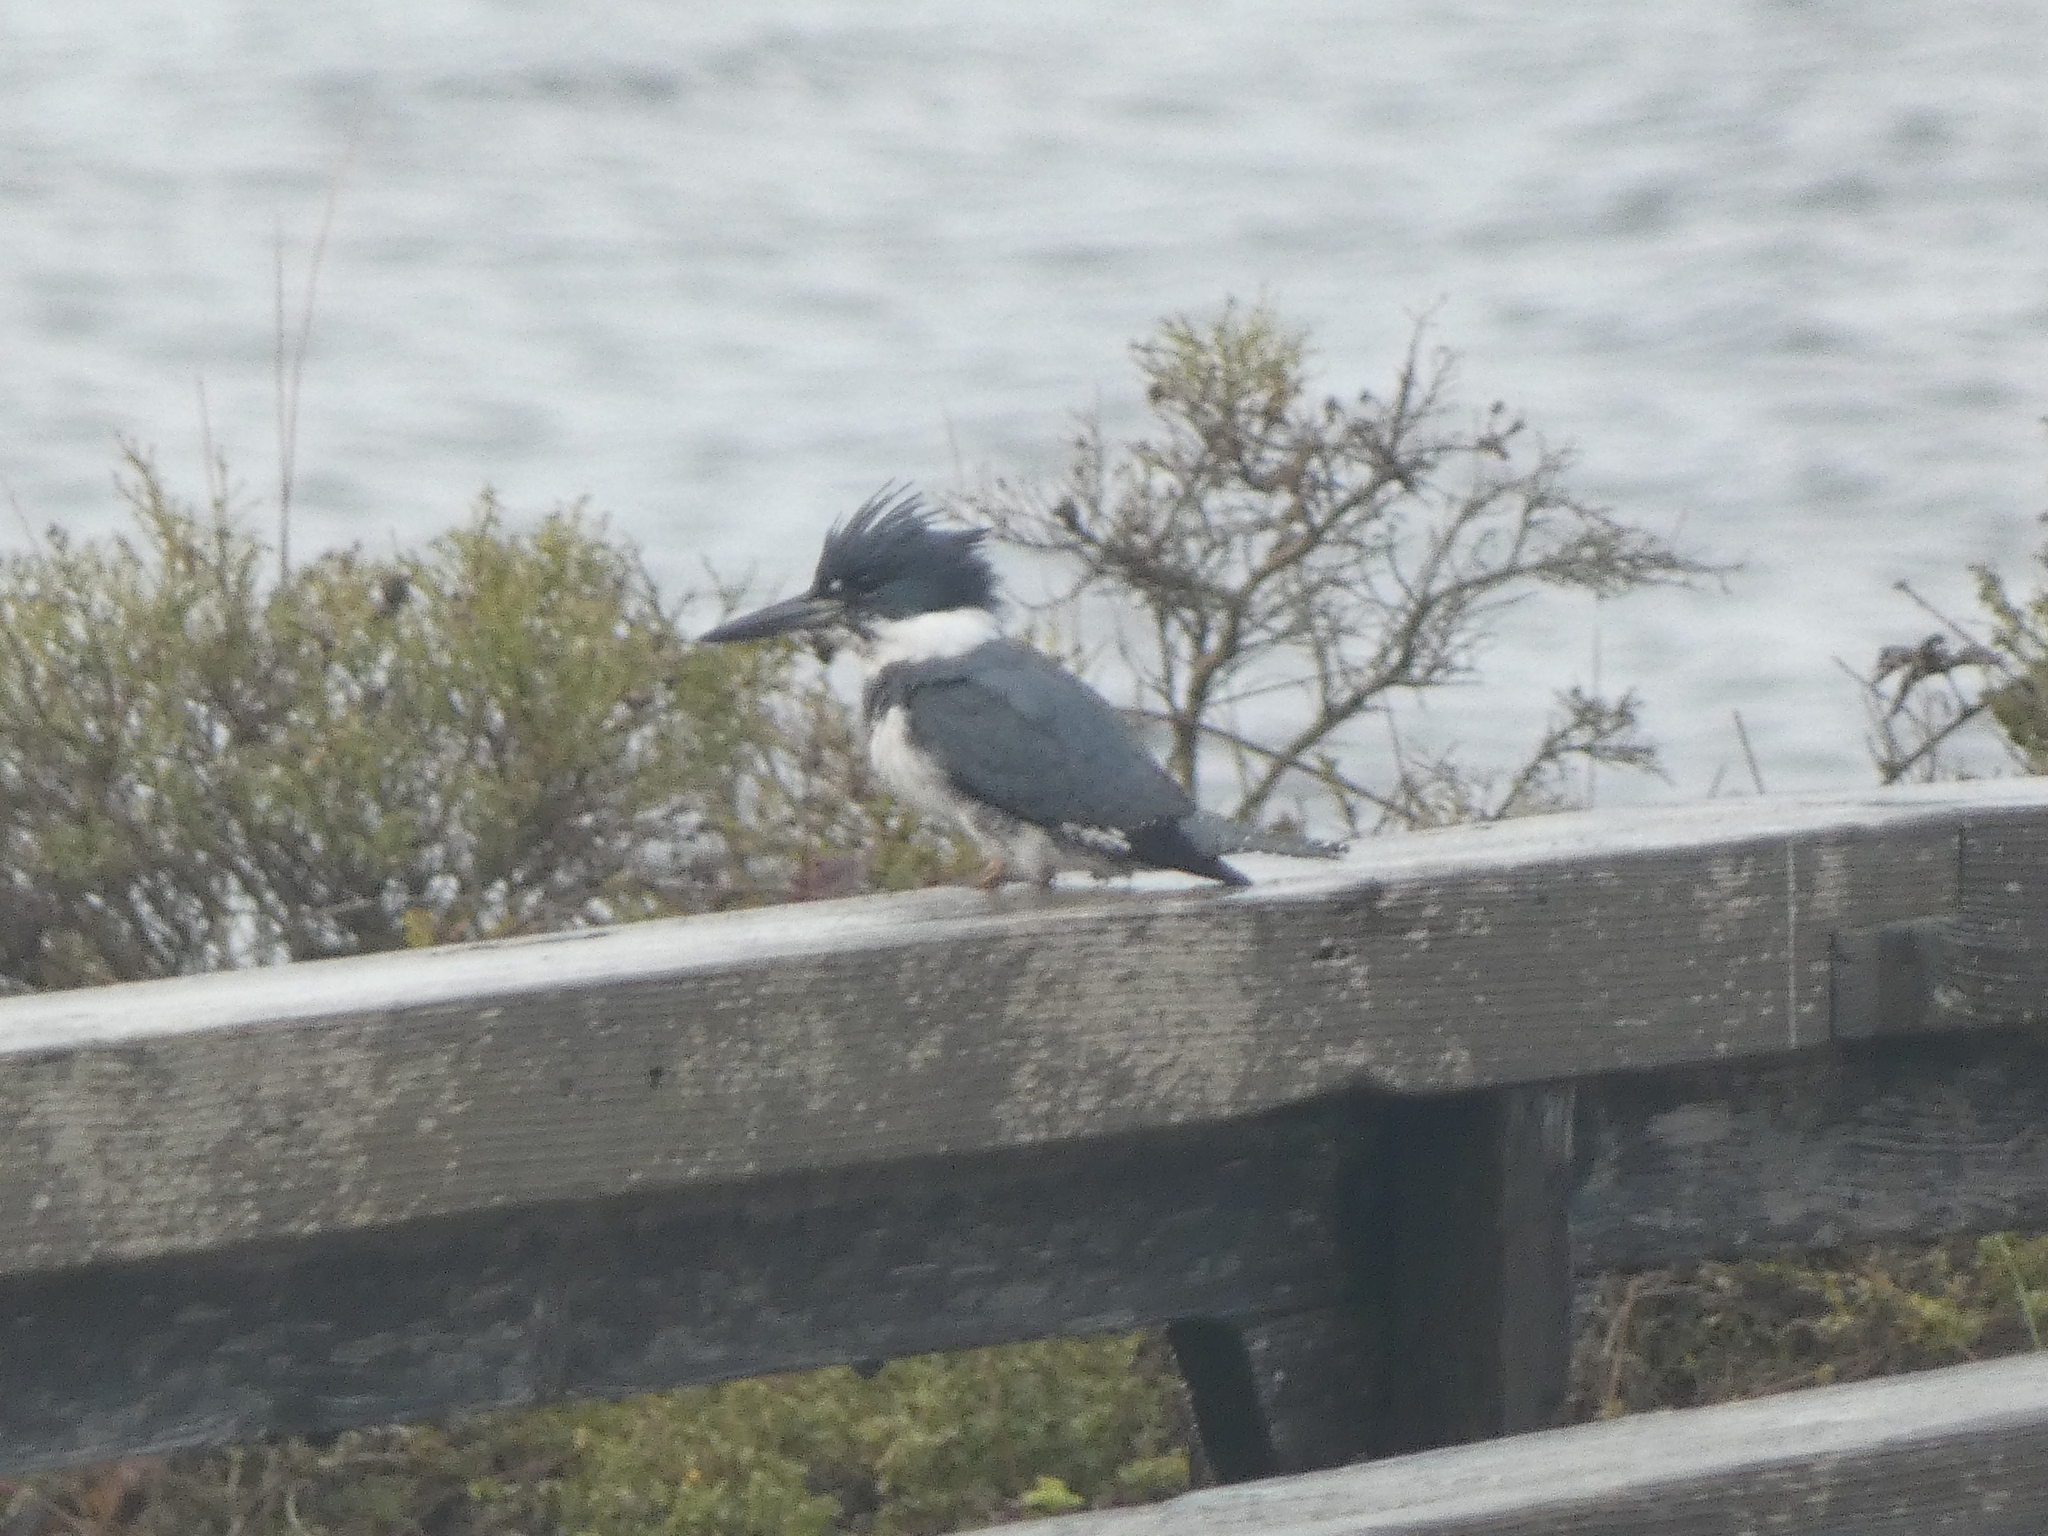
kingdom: Animalia
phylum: Chordata
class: Aves
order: Coraciiformes
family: Alcedinidae
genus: Megaceryle
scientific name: Megaceryle alcyon
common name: Belted kingfisher
